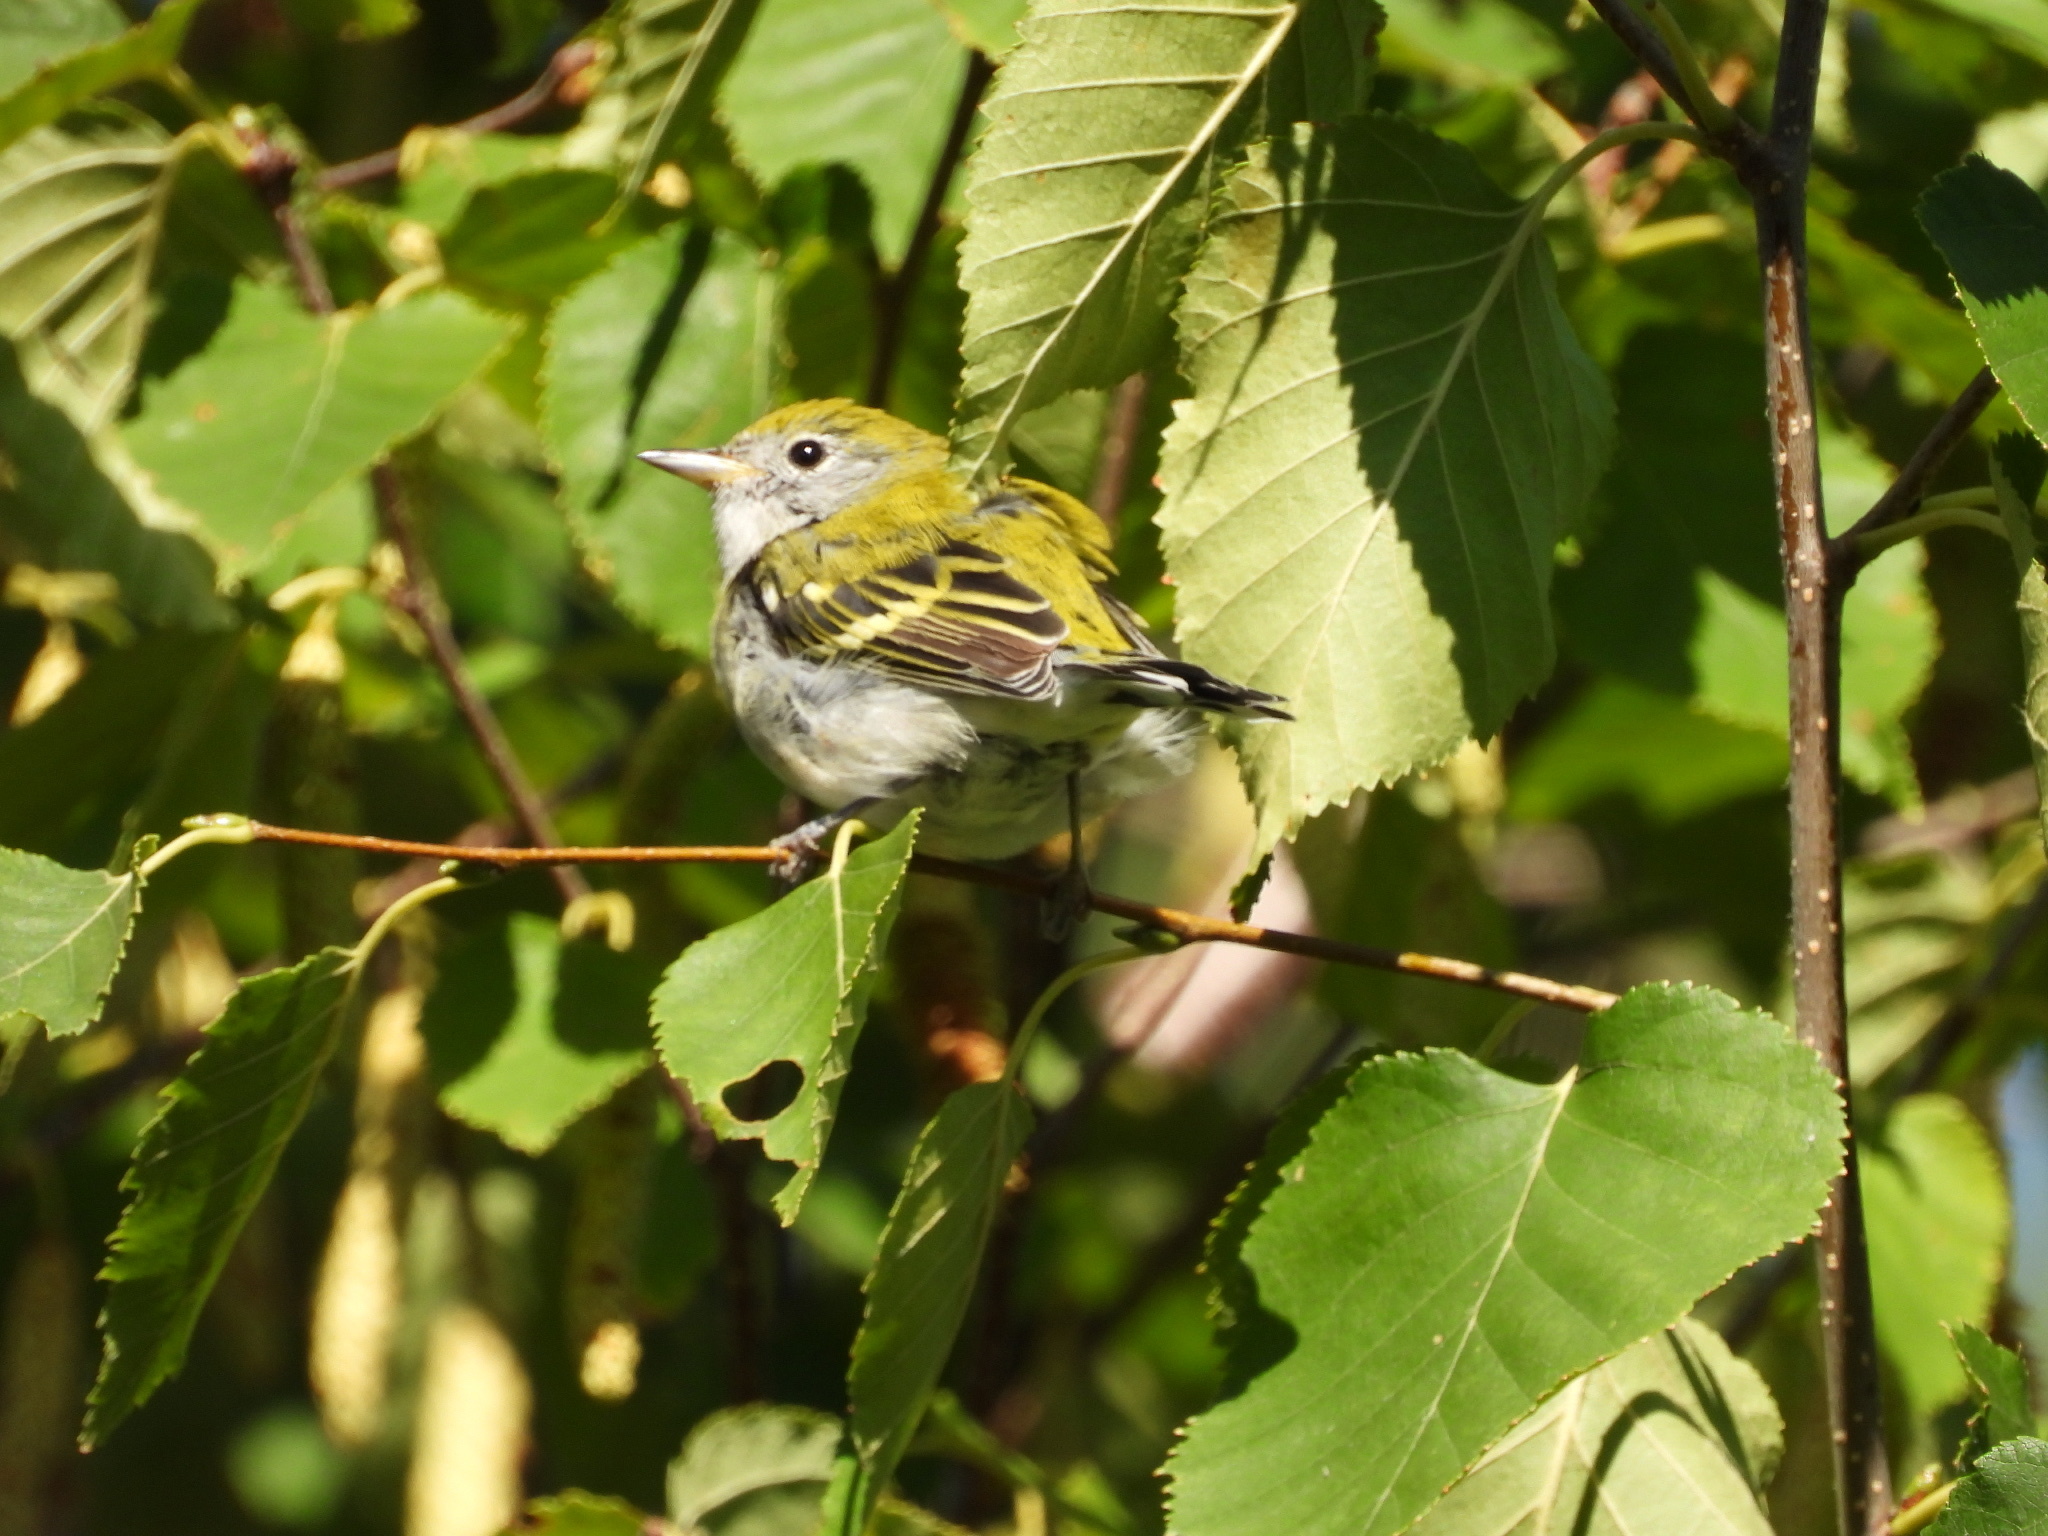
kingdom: Animalia
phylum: Chordata
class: Aves
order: Passeriformes
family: Parulidae
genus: Setophaga
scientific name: Setophaga pensylvanica
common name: Chestnut-sided warbler
